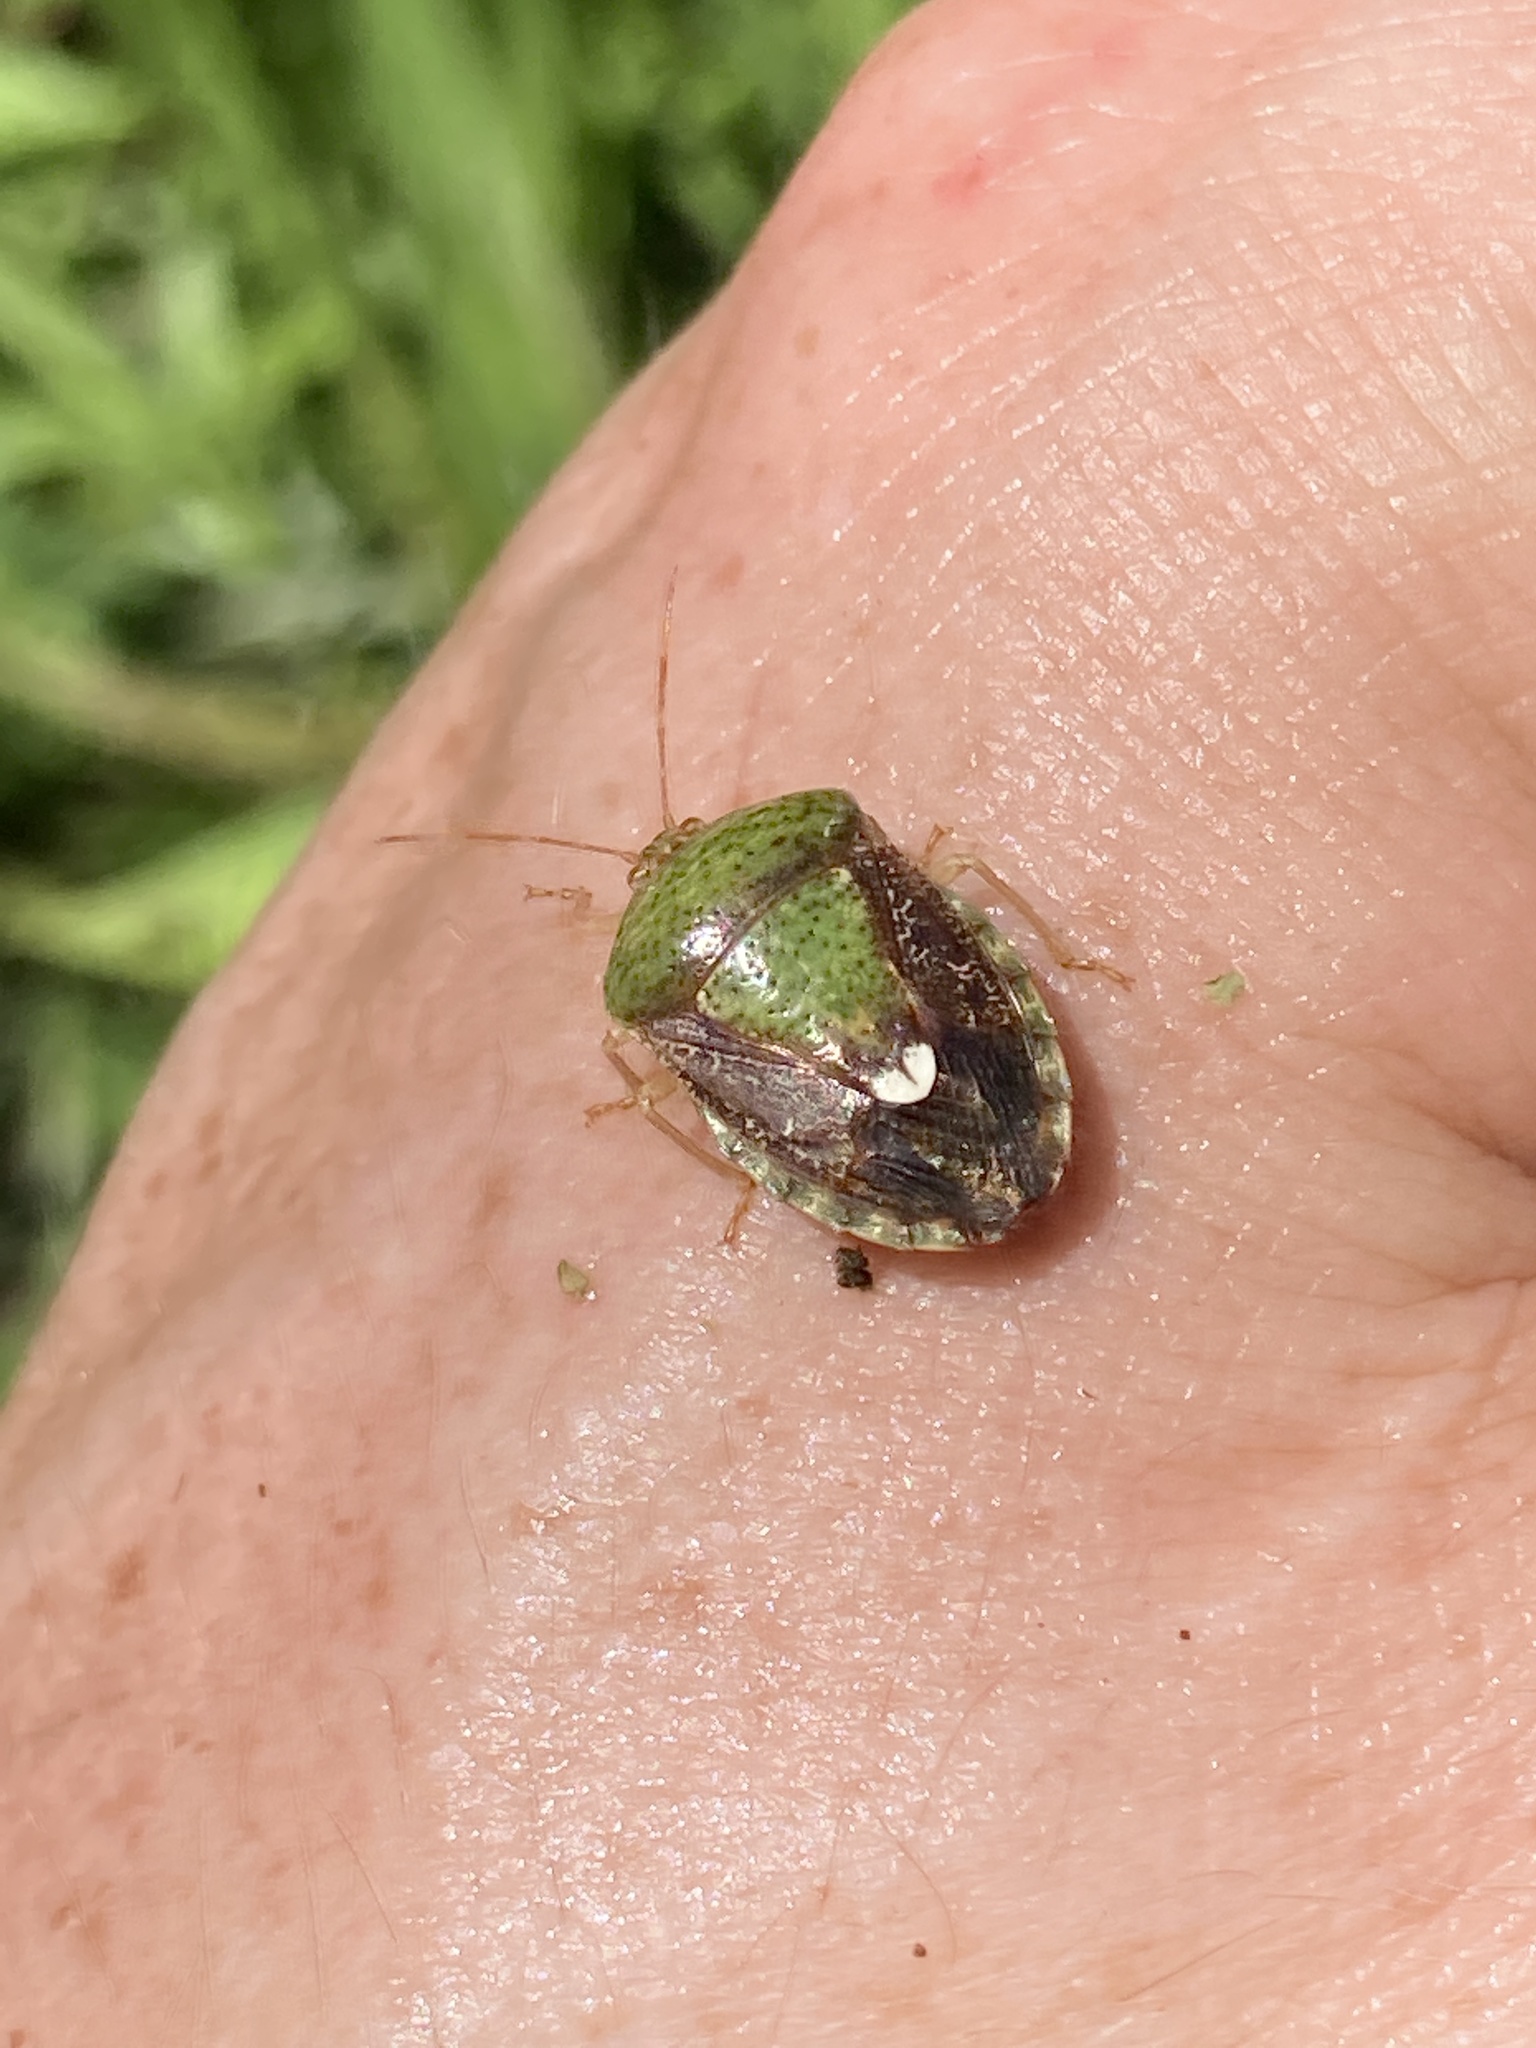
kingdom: Animalia
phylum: Arthropoda
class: Insecta
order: Hemiptera
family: Pentatomidae
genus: Edessa
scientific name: Edessa bifida
